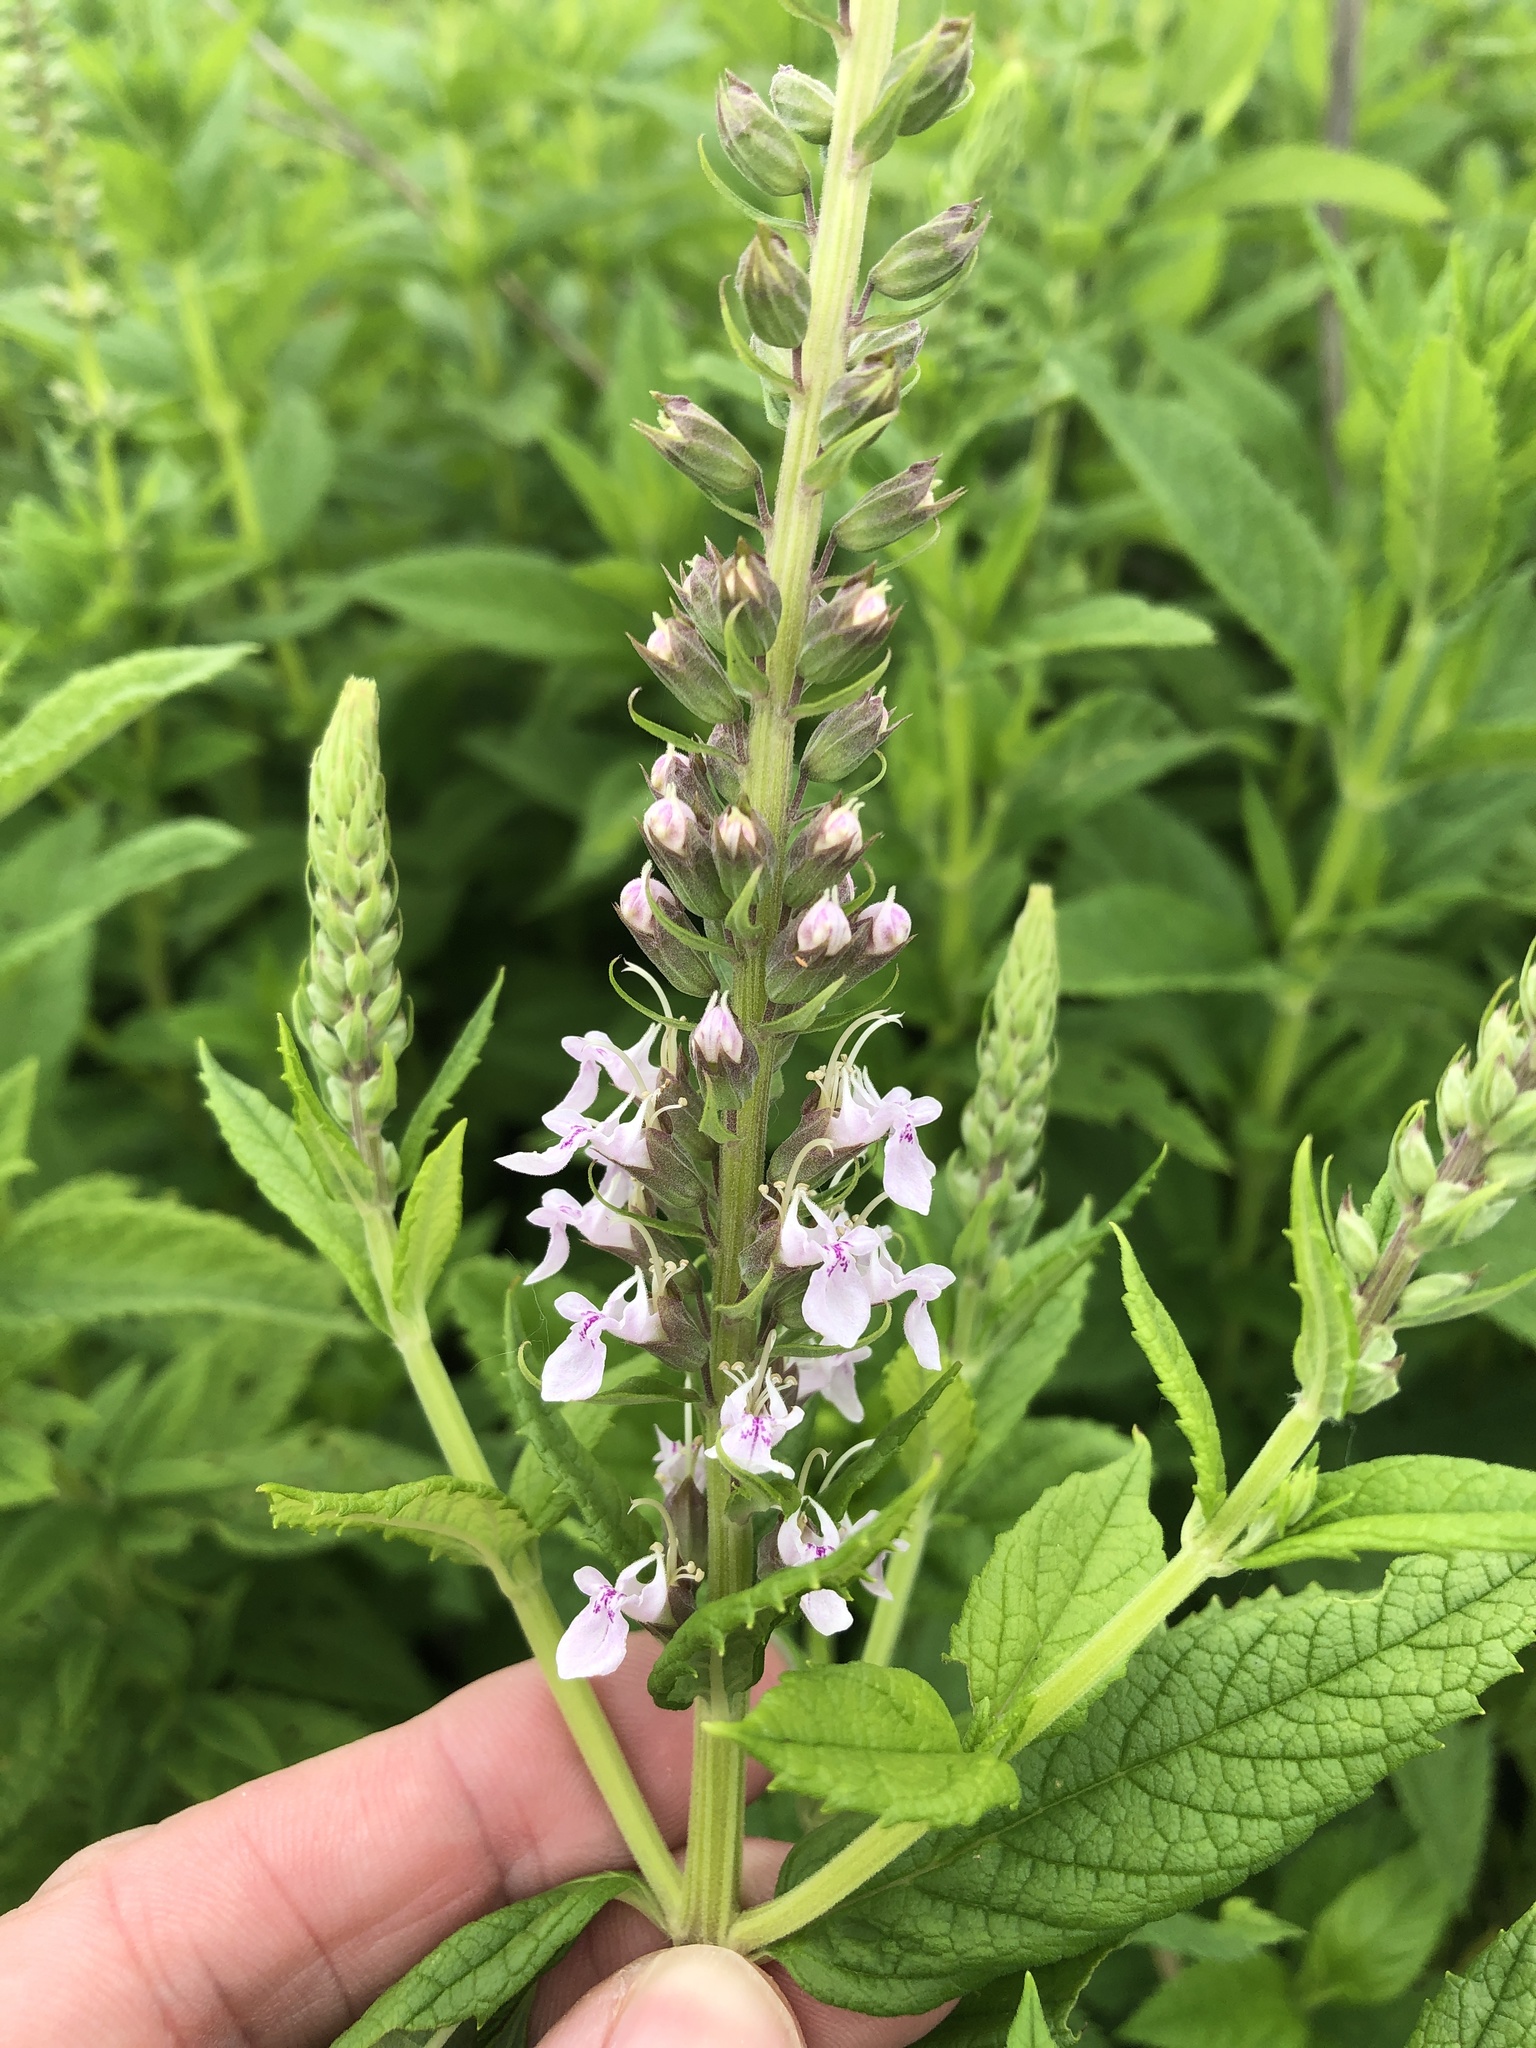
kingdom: Plantae
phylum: Tracheophyta
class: Magnoliopsida
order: Lamiales
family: Lamiaceae
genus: Teucrium
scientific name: Teucrium canadense
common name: American germander
